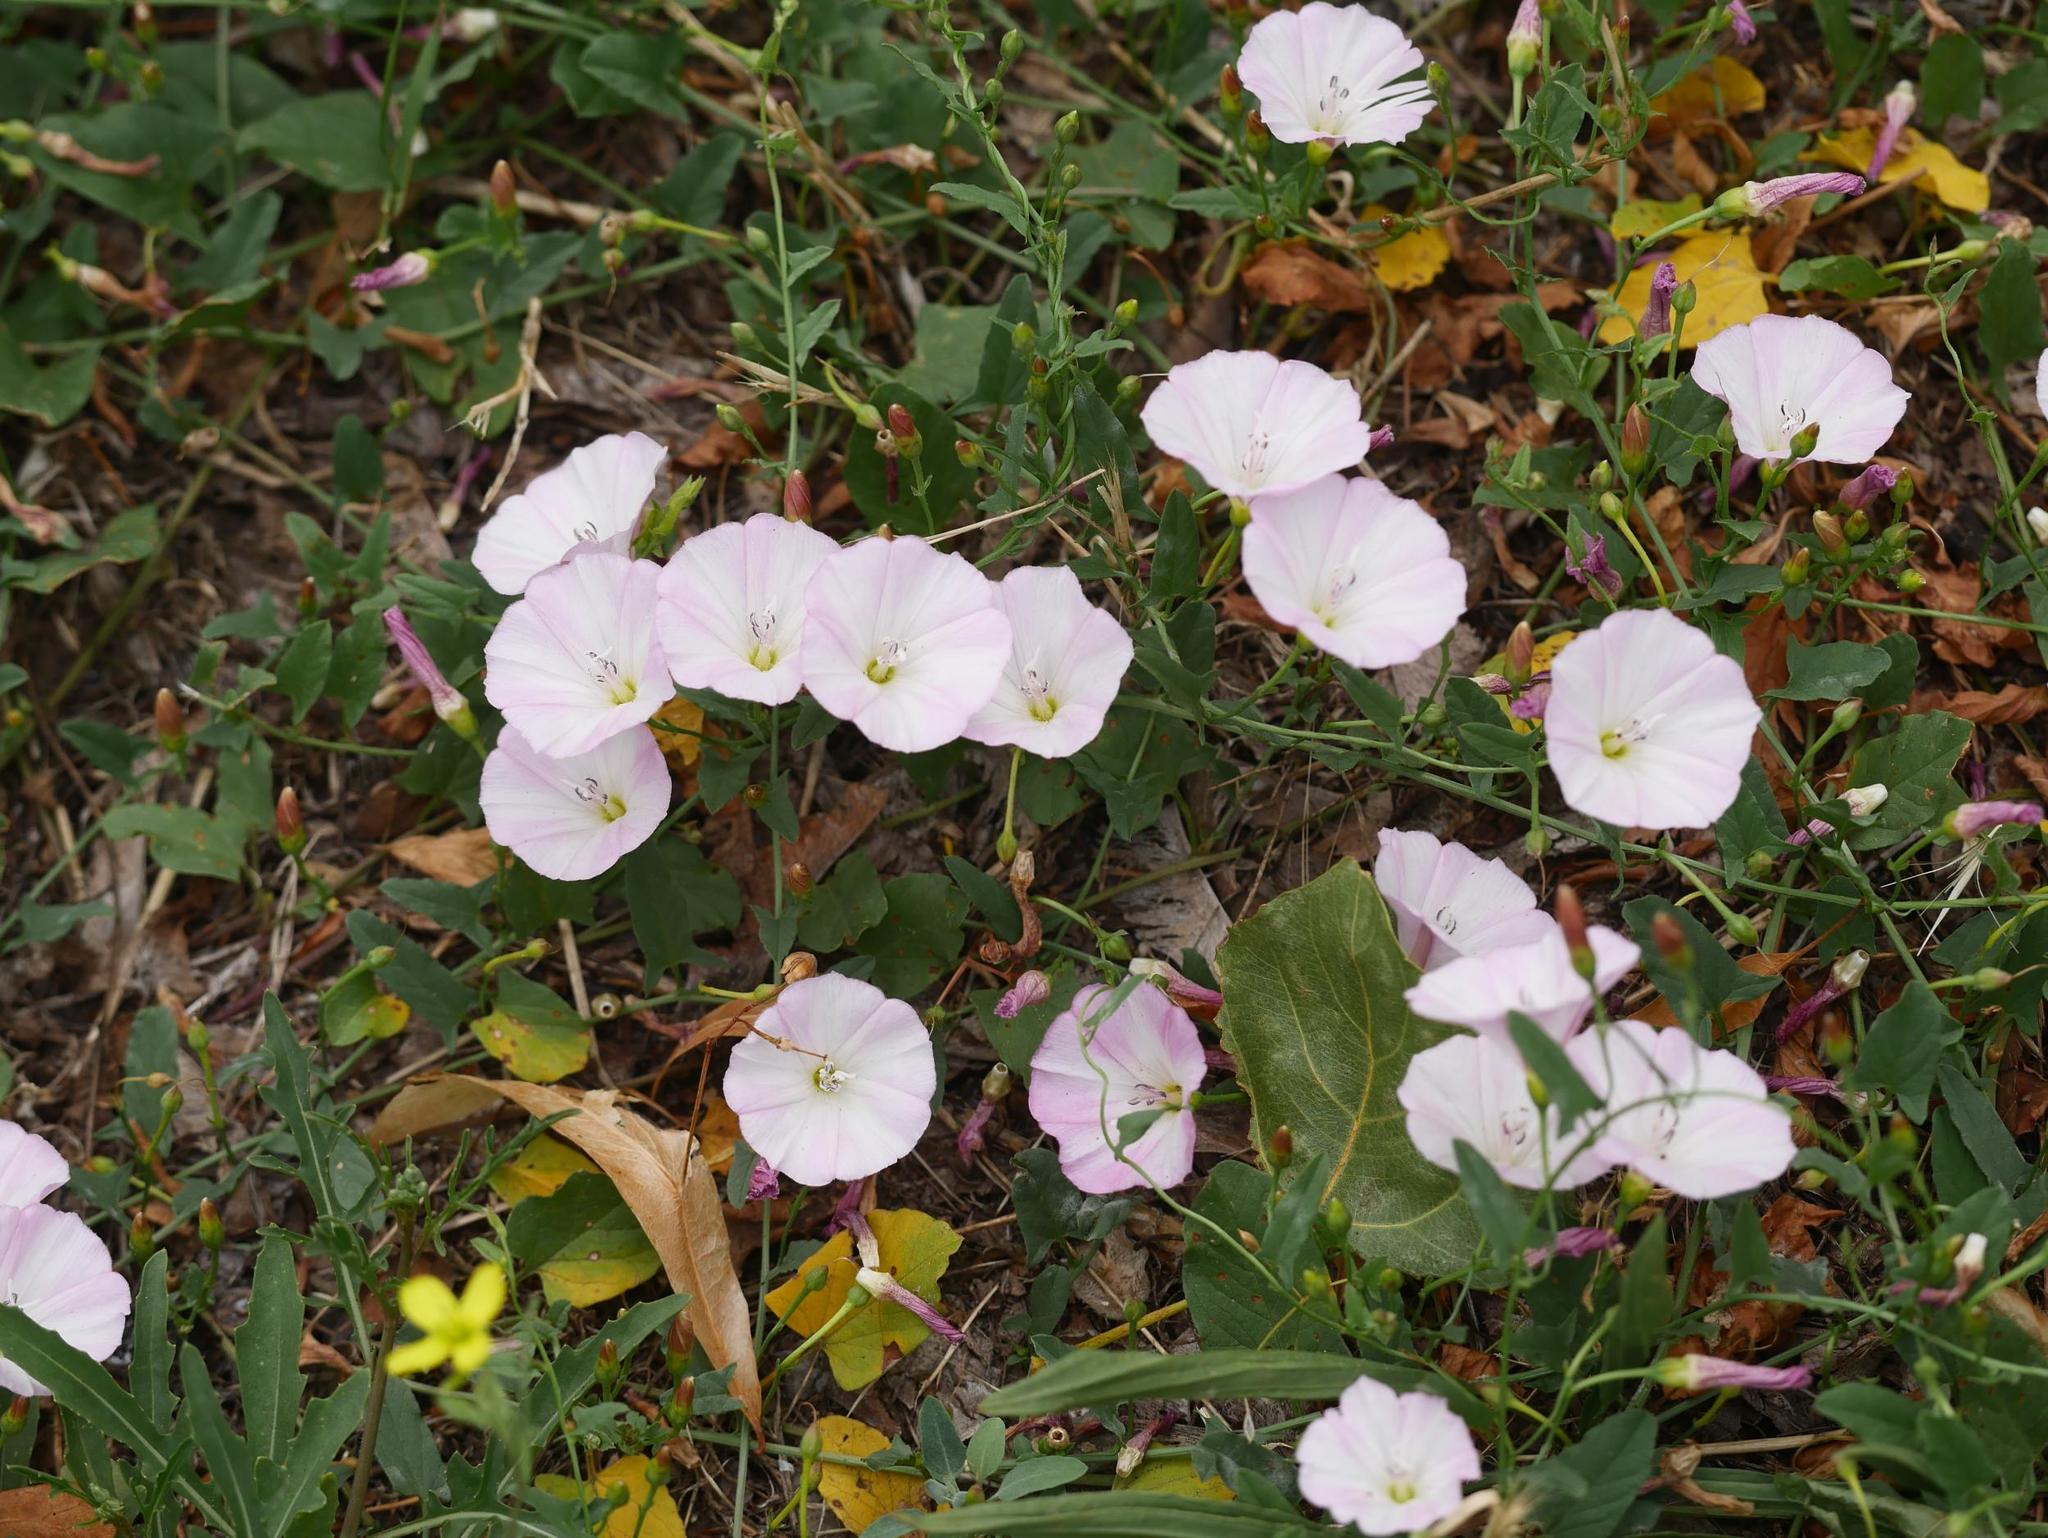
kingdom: Plantae
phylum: Tracheophyta
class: Magnoliopsida
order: Solanales
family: Convolvulaceae
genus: Convolvulus
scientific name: Convolvulus arvensis
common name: Field bindweed
